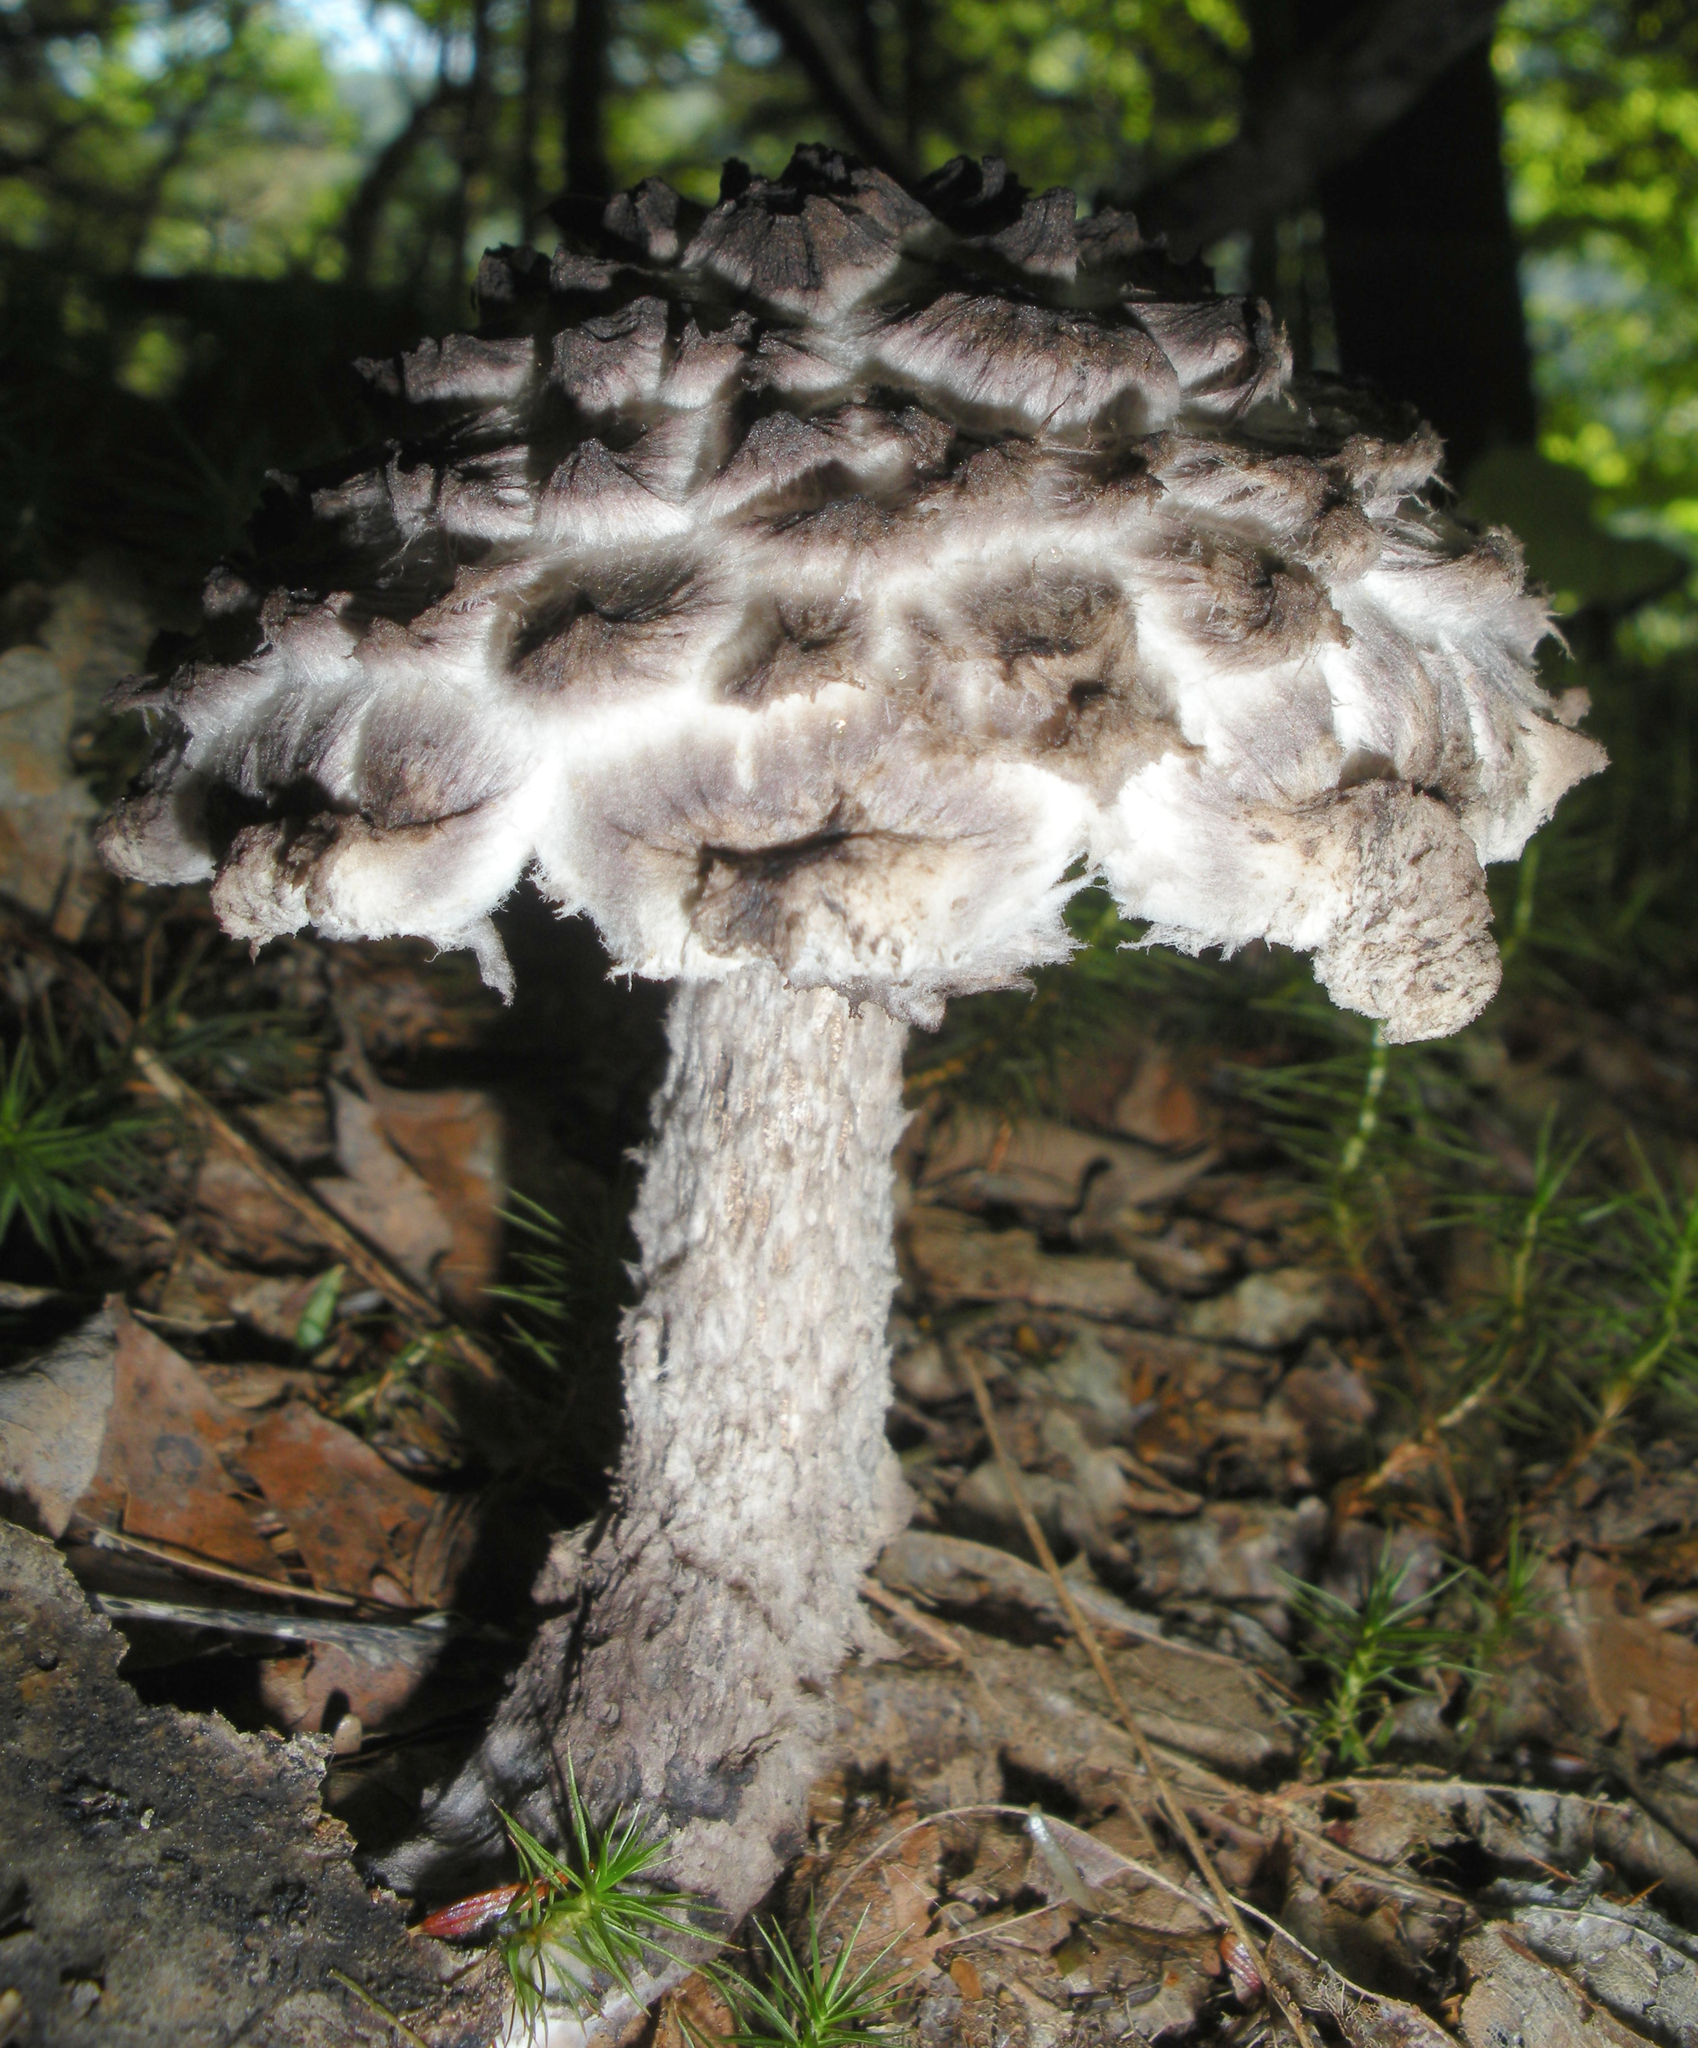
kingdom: Fungi
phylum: Basidiomycota
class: Agaricomycetes
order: Boletales
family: Boletaceae
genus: Strobilomyces
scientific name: Strobilomyces strobilaceus
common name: Old man of the woods
